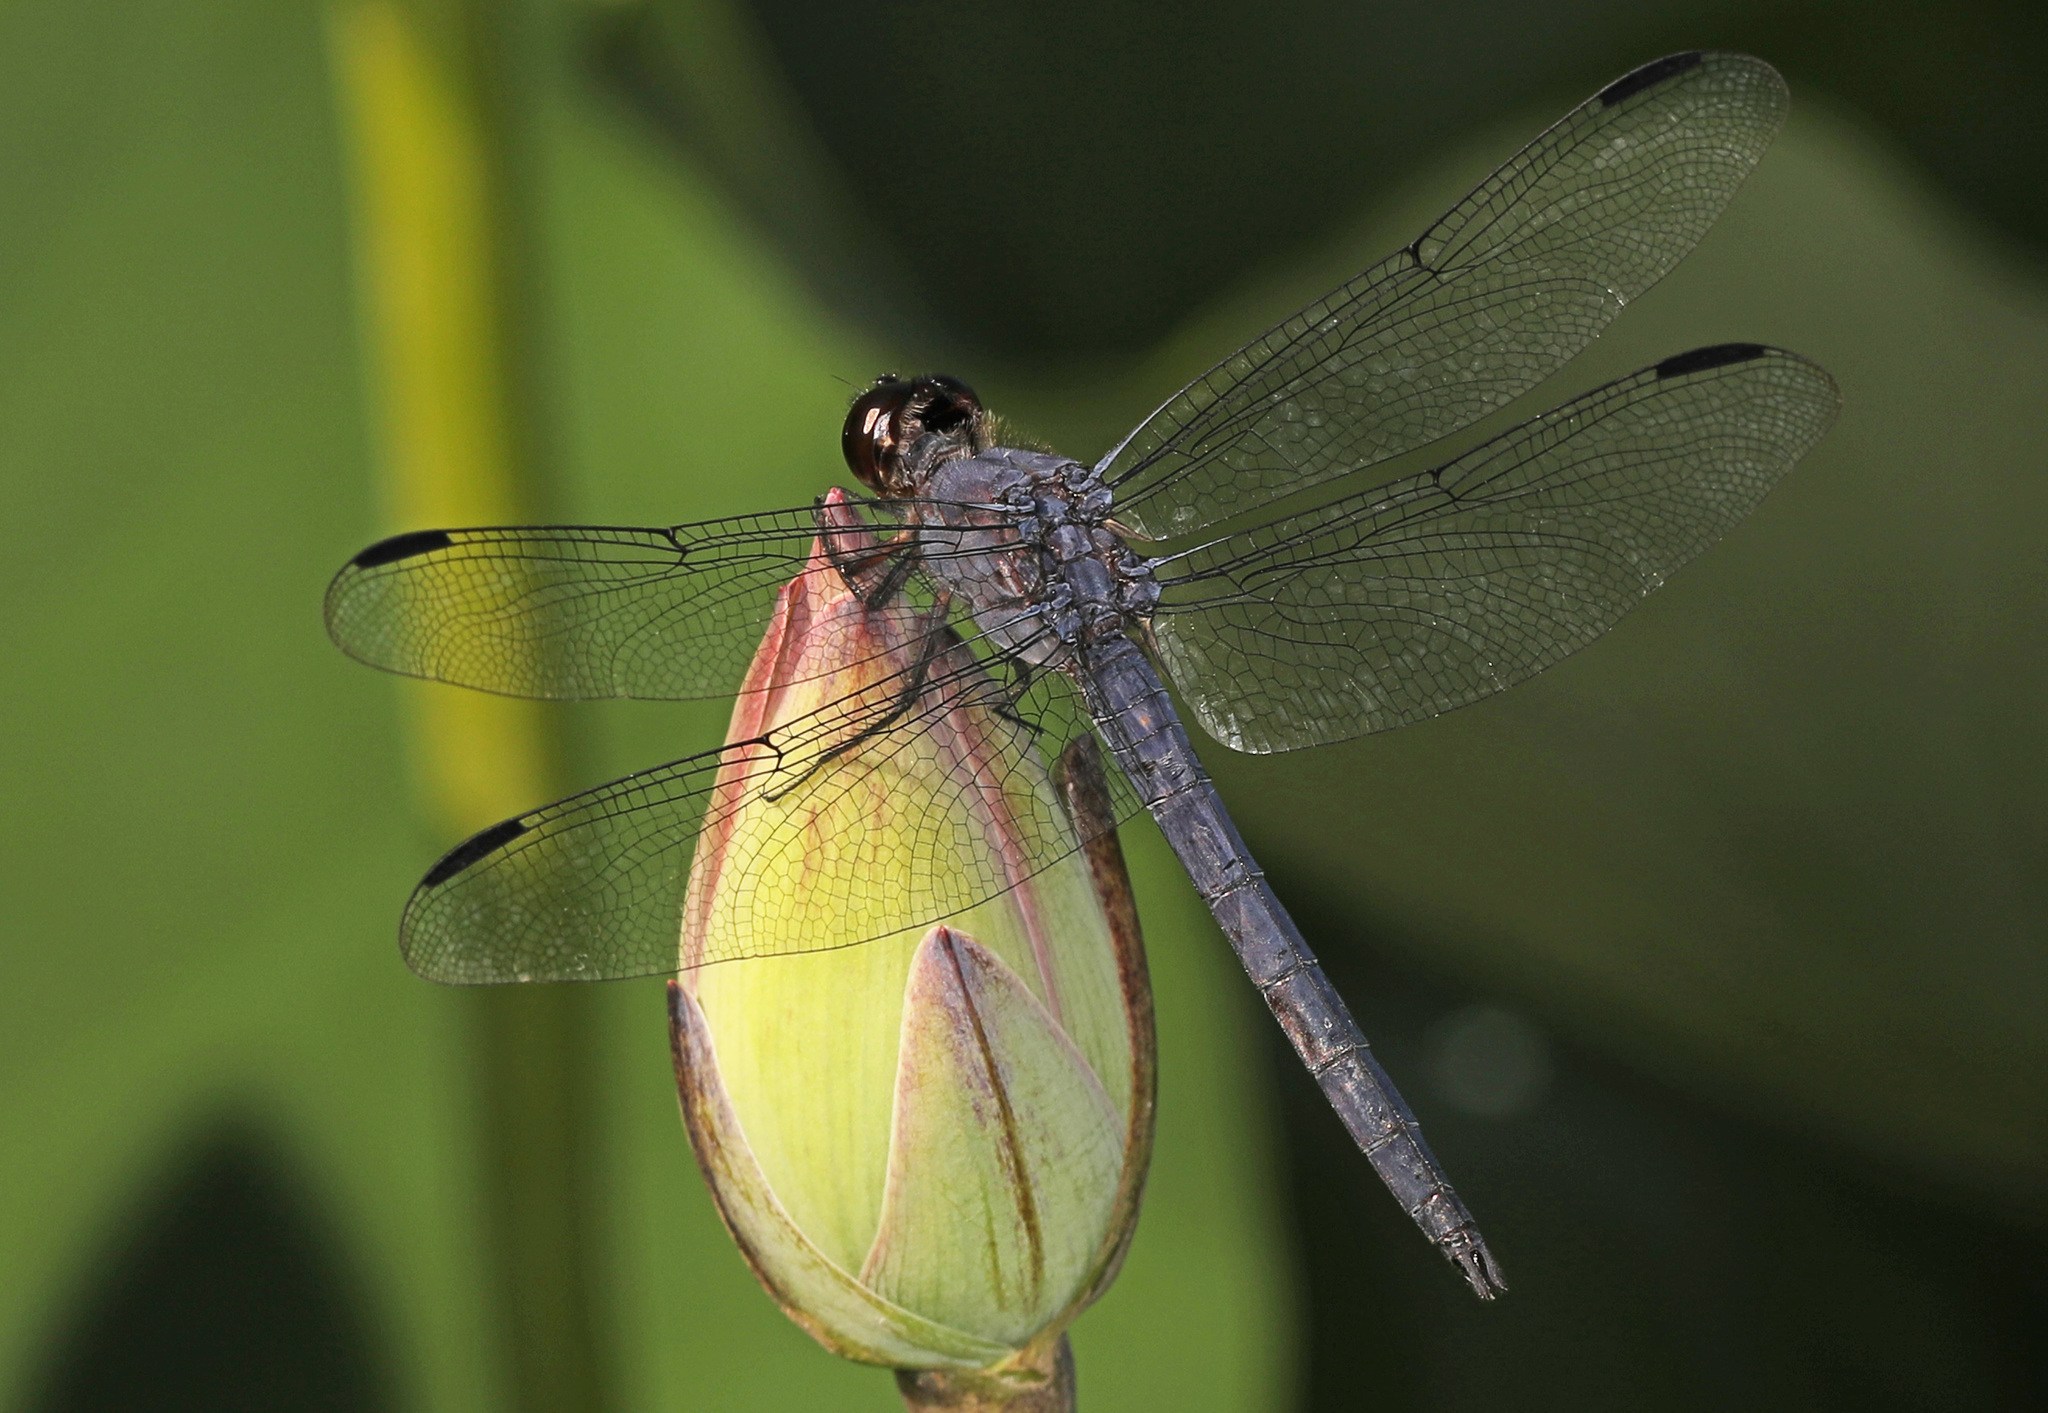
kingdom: Animalia
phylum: Arthropoda
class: Insecta
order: Odonata
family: Libellulidae
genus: Libellula
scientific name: Libellula incesta
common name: Slaty skimmer
